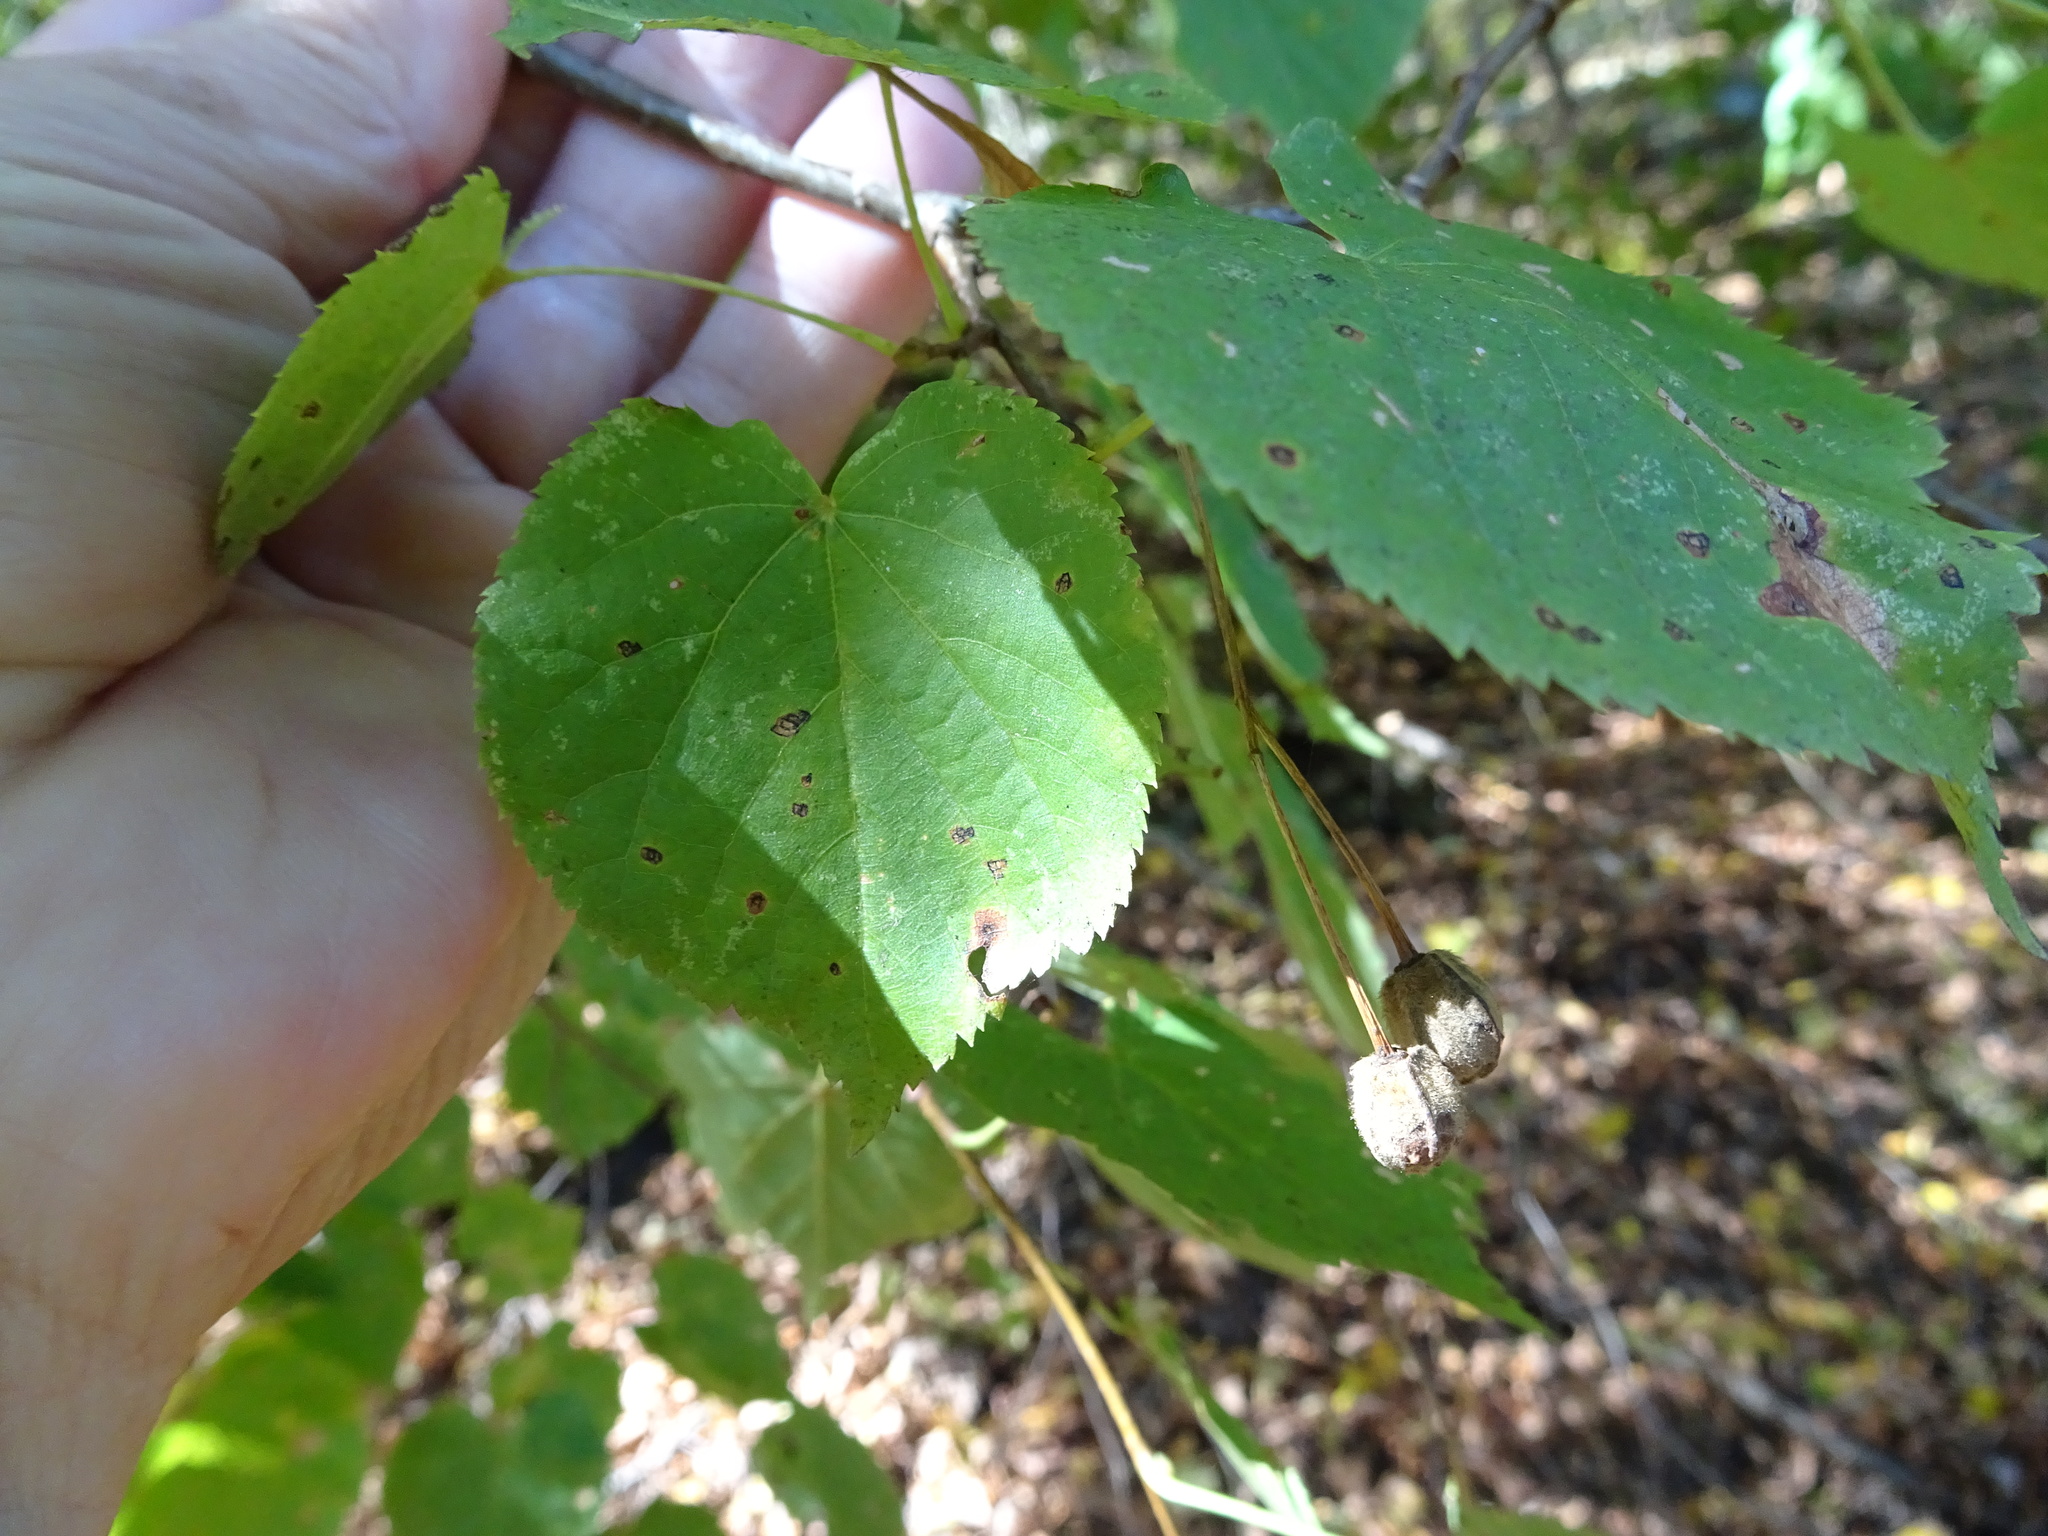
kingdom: Plantae
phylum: Tracheophyta
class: Magnoliopsida
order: Malvales
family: Malvaceae
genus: Tilia
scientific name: Tilia platyphyllos
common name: Large-leaved lime
